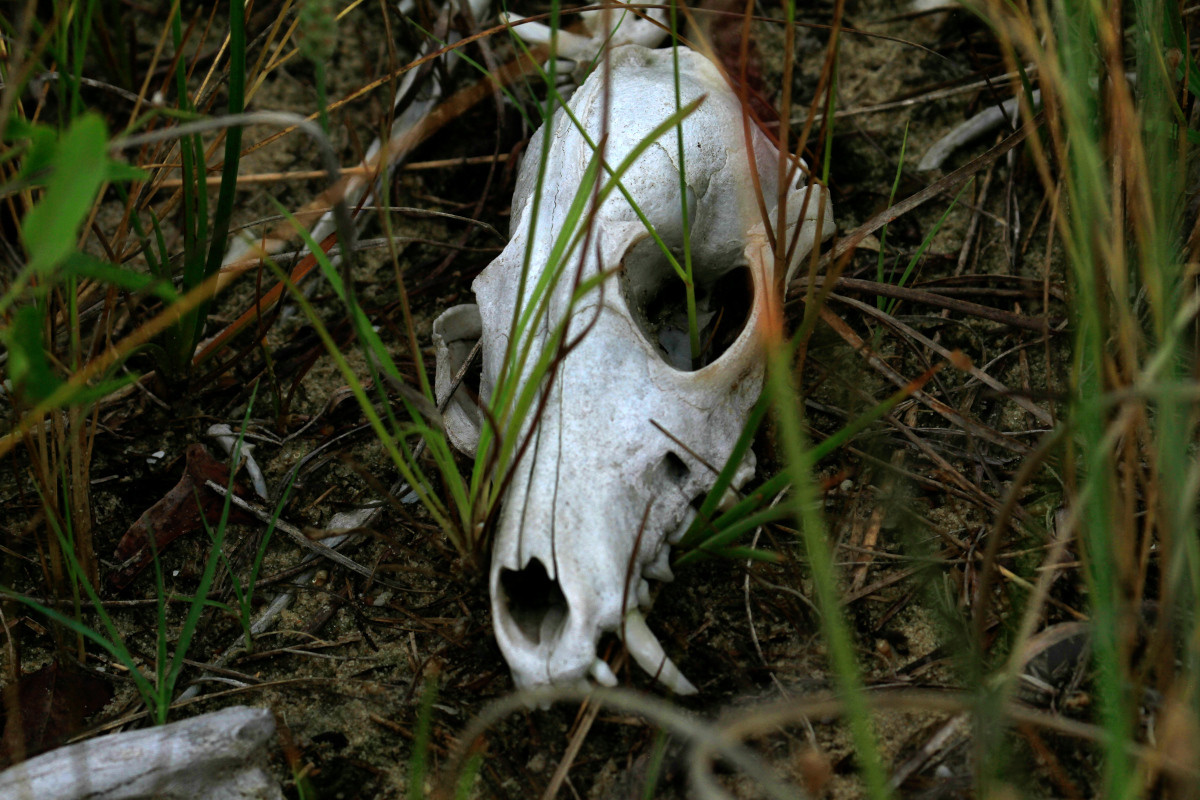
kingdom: Animalia
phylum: Chordata
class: Mammalia
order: Carnivora
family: Canidae
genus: Vulpes
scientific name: Vulpes vulpes
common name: Red fox
